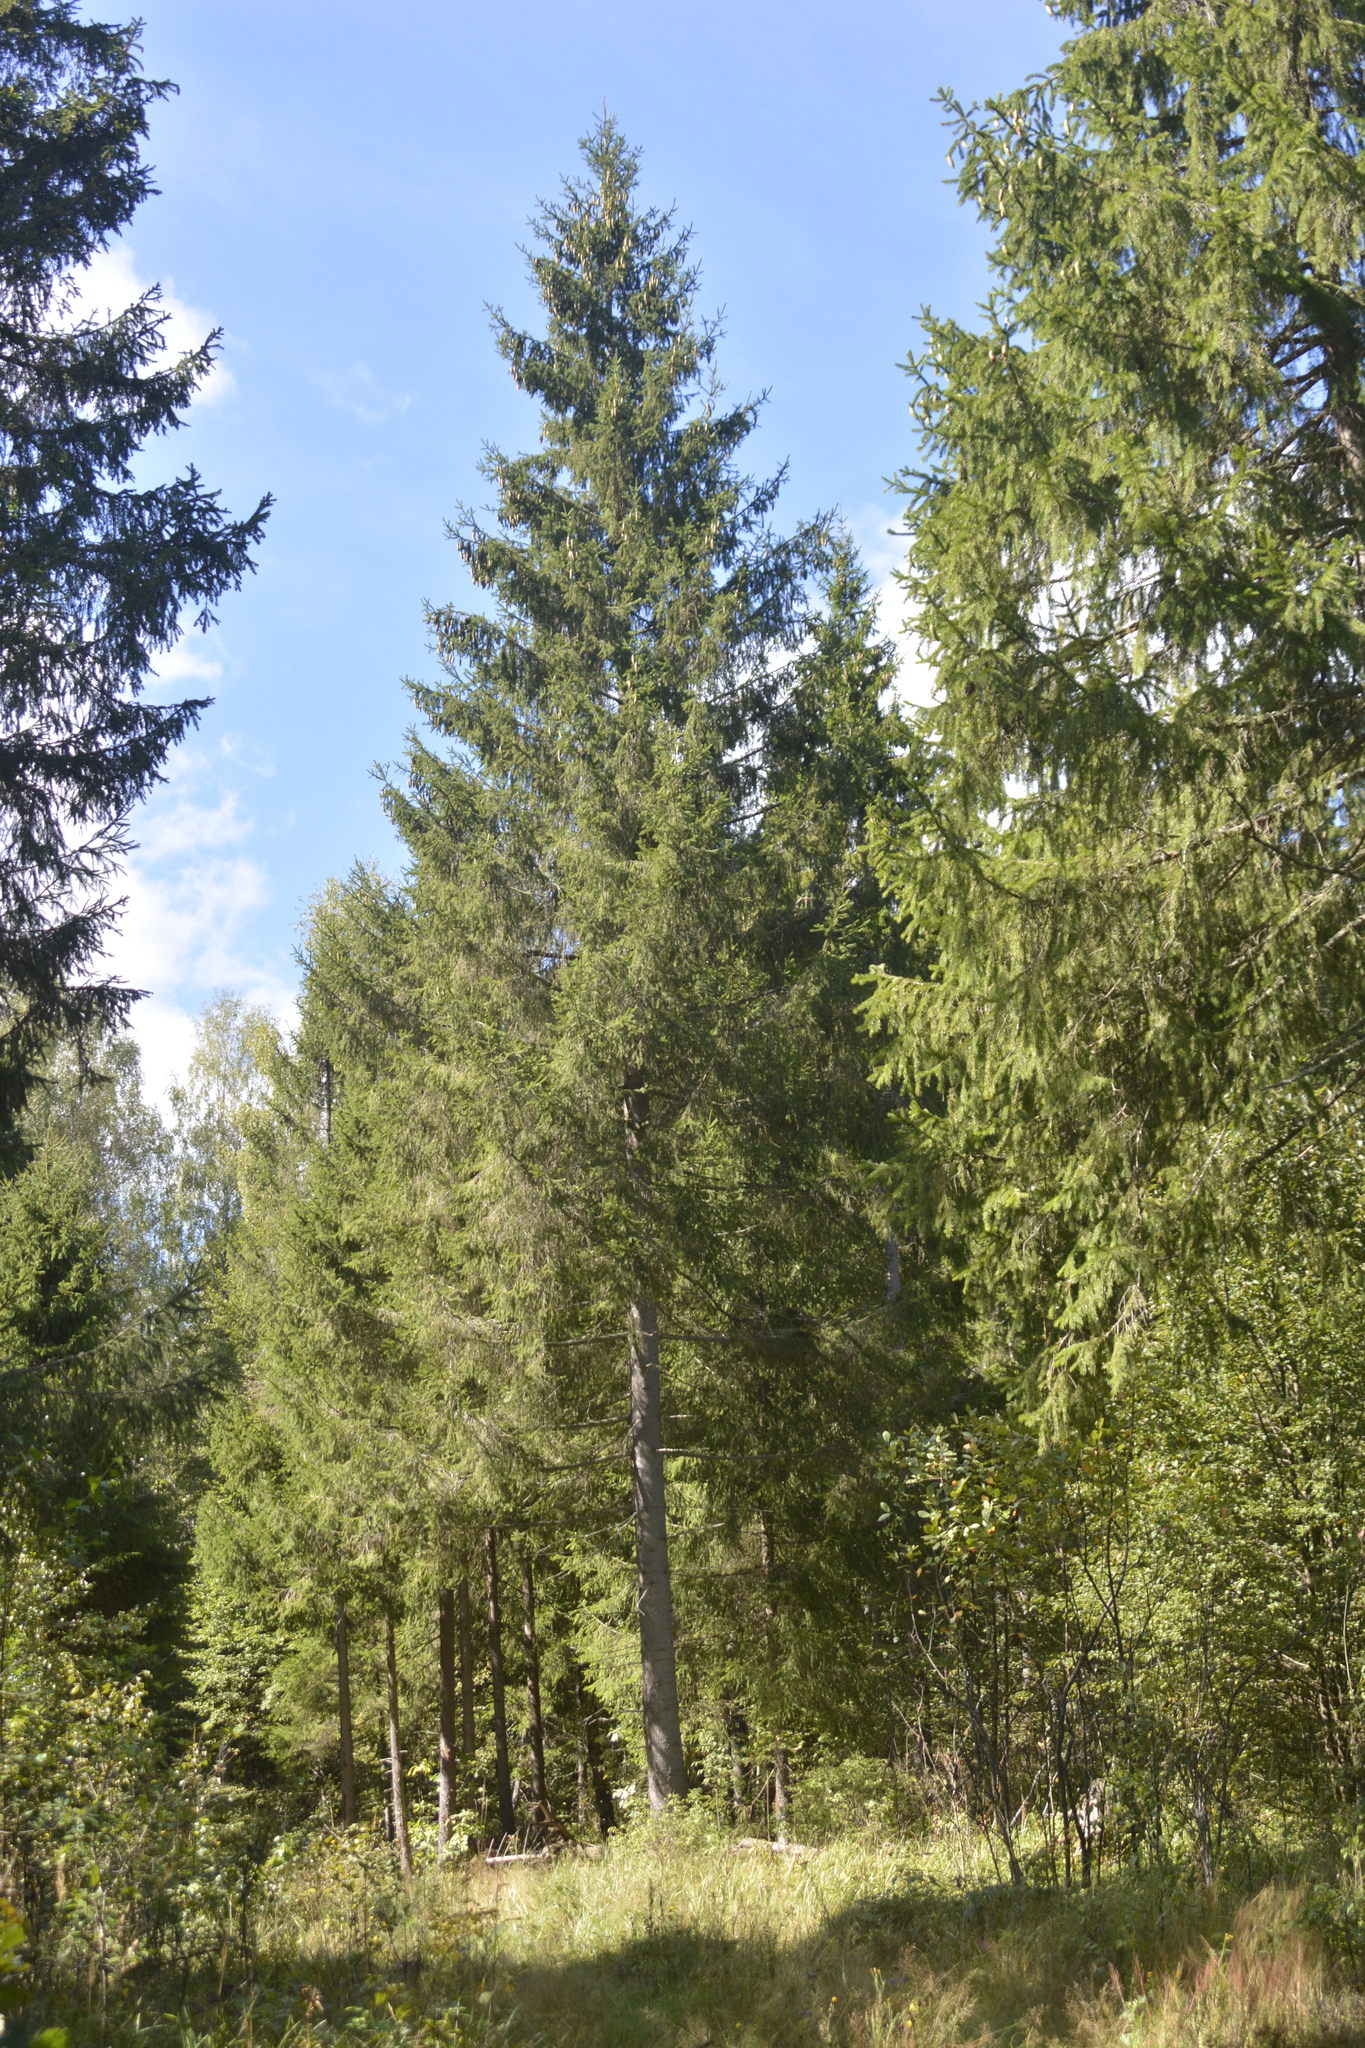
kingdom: Plantae
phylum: Tracheophyta
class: Pinopsida
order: Pinales
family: Pinaceae
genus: Picea
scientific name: Picea abies
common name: Norway spruce
